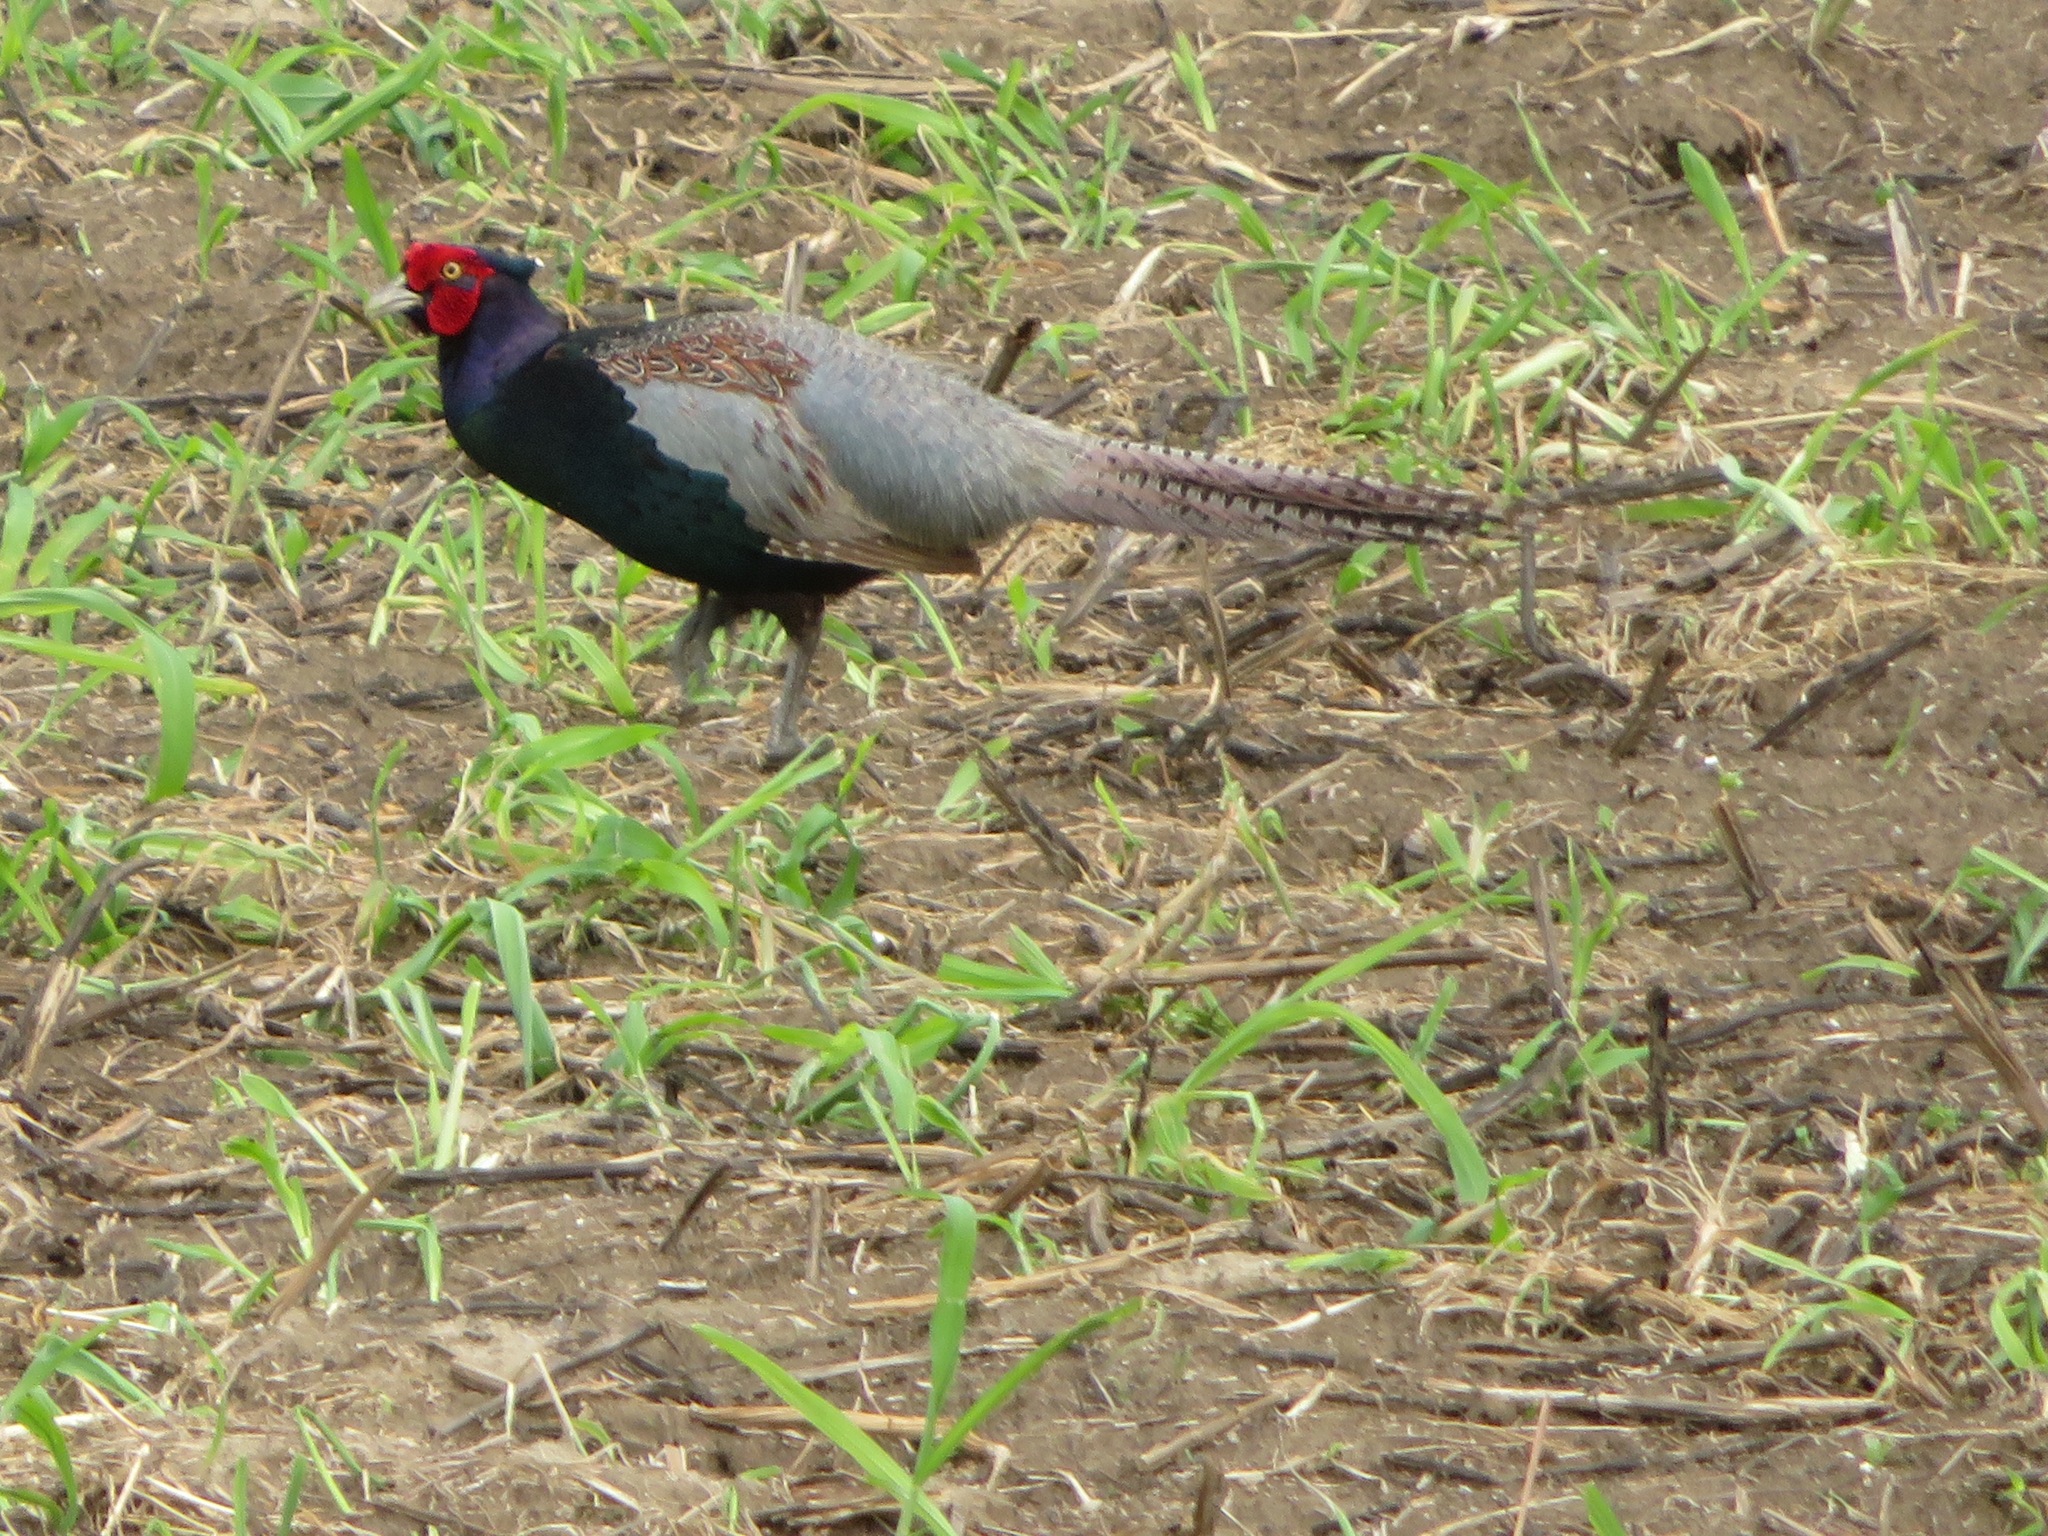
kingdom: Animalia
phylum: Chordata
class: Aves
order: Galliformes
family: Phasianidae
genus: Phasianus
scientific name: Phasianus versicolor
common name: Green pheasant
